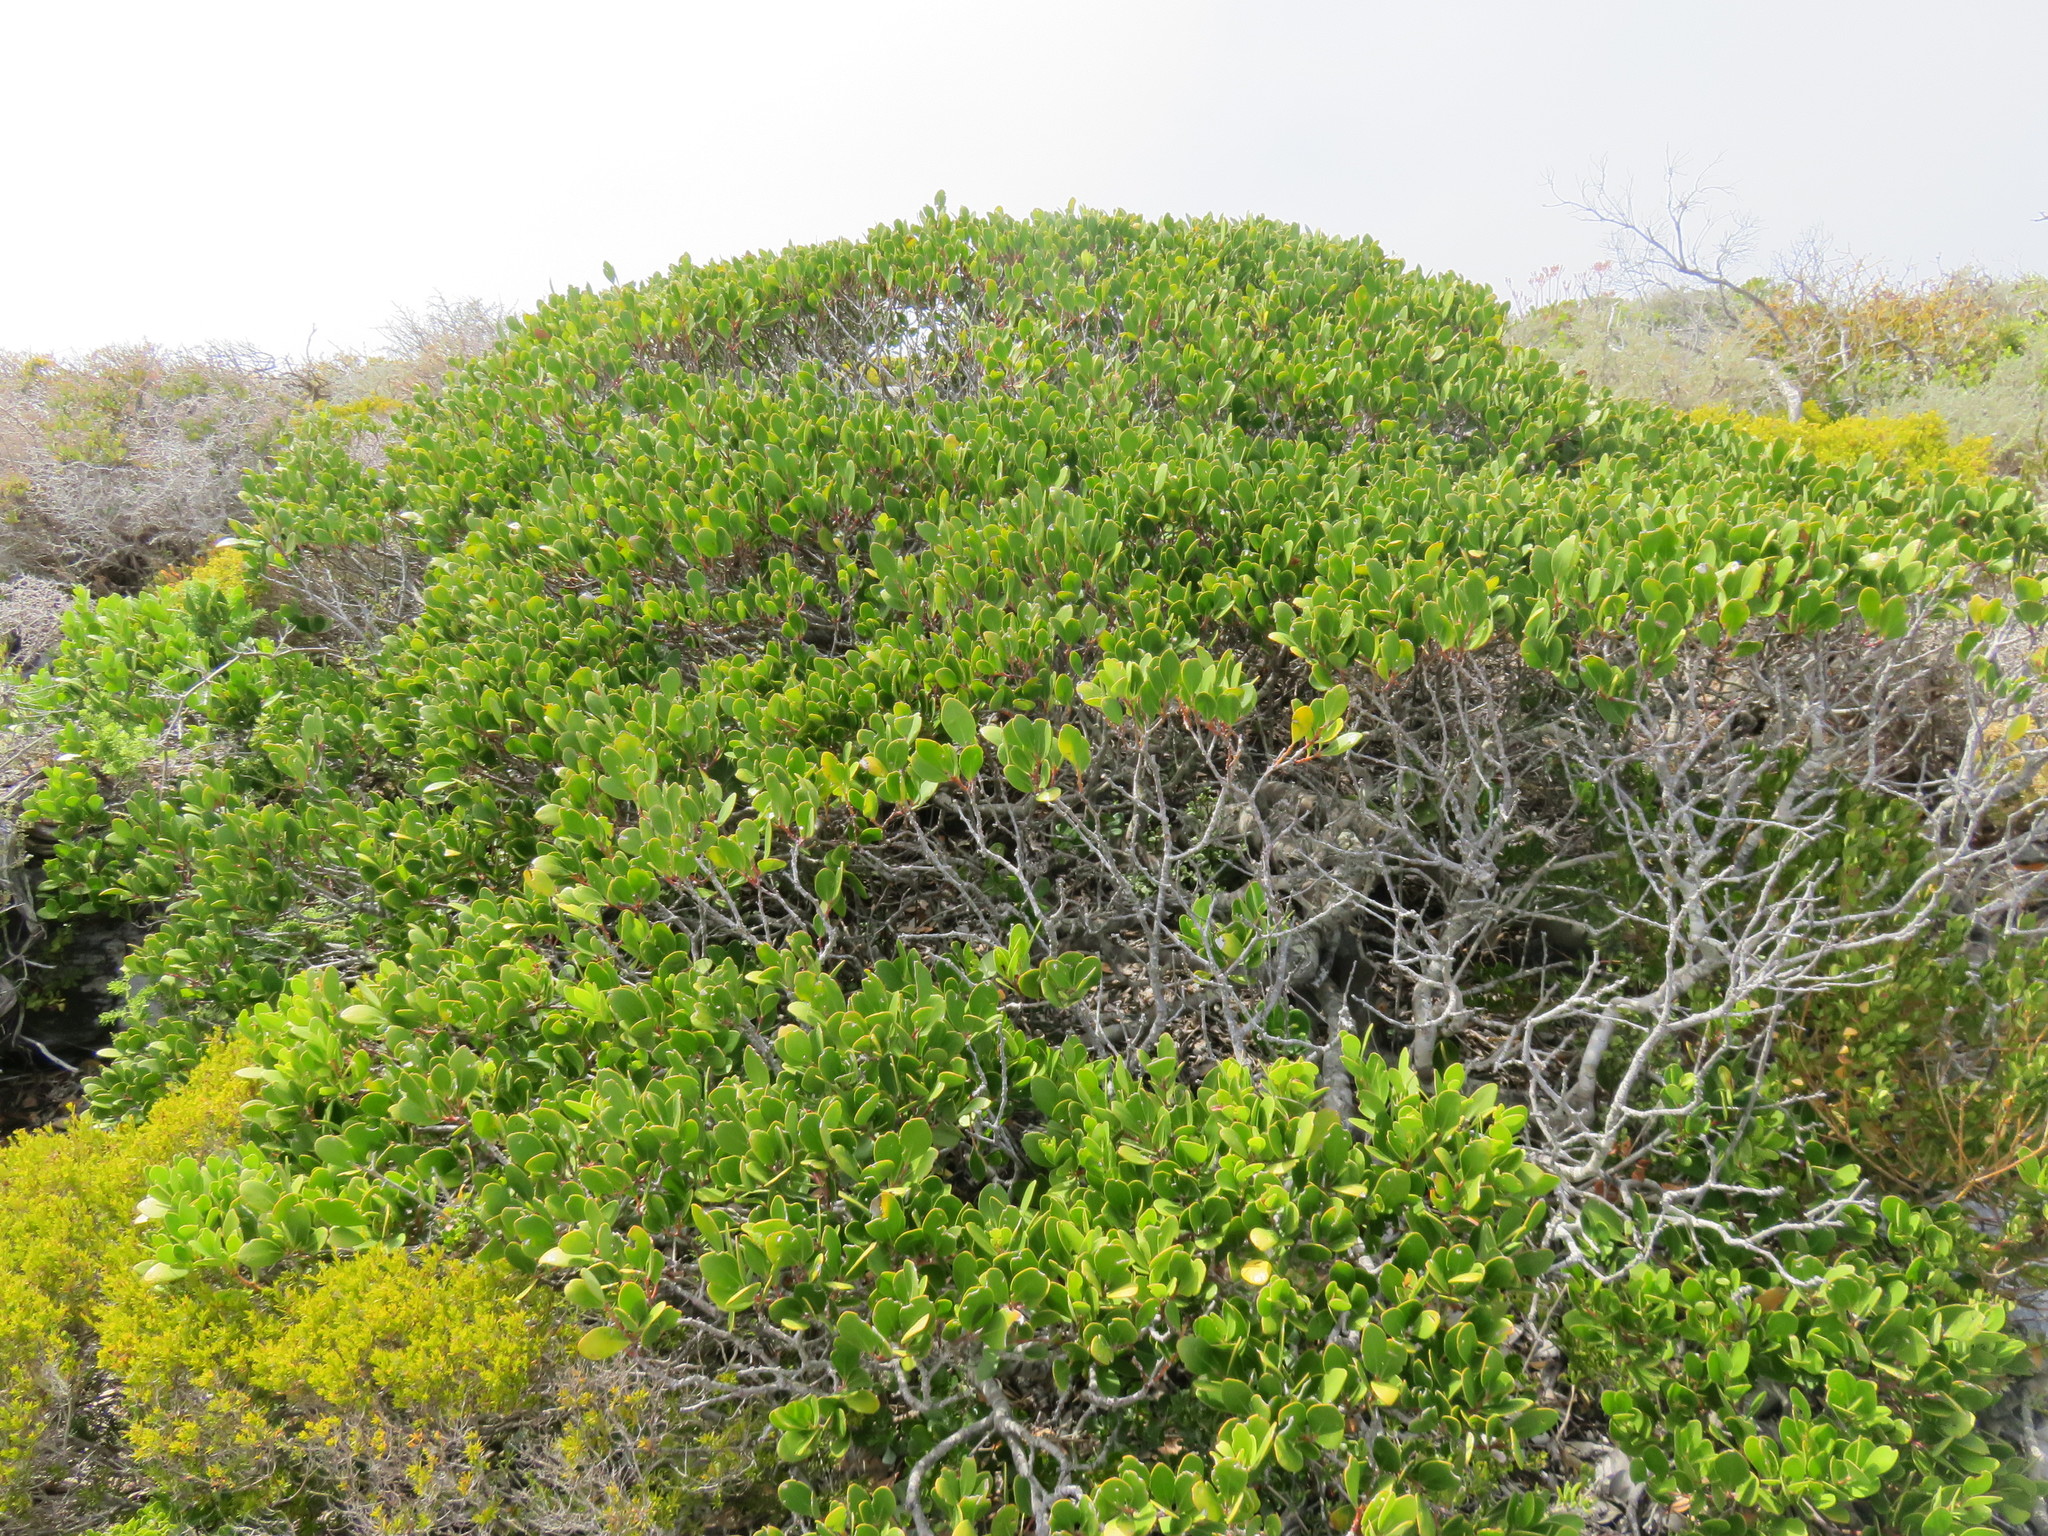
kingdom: Plantae
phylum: Tracheophyta
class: Magnoliopsida
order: Celastrales
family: Celastraceae
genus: Pterocelastrus
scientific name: Pterocelastrus tricuspidatus
